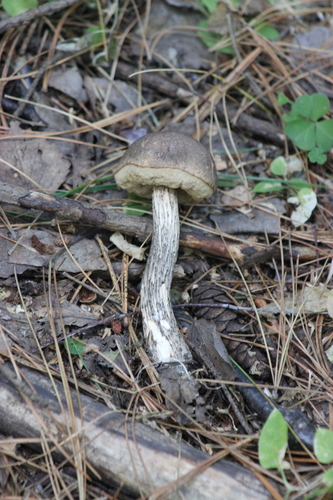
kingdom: Fungi
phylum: Basidiomycota
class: Agaricomycetes
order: Boletales
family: Boletaceae
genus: Leccinum
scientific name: Leccinum variicolor
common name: Mottled bolete
